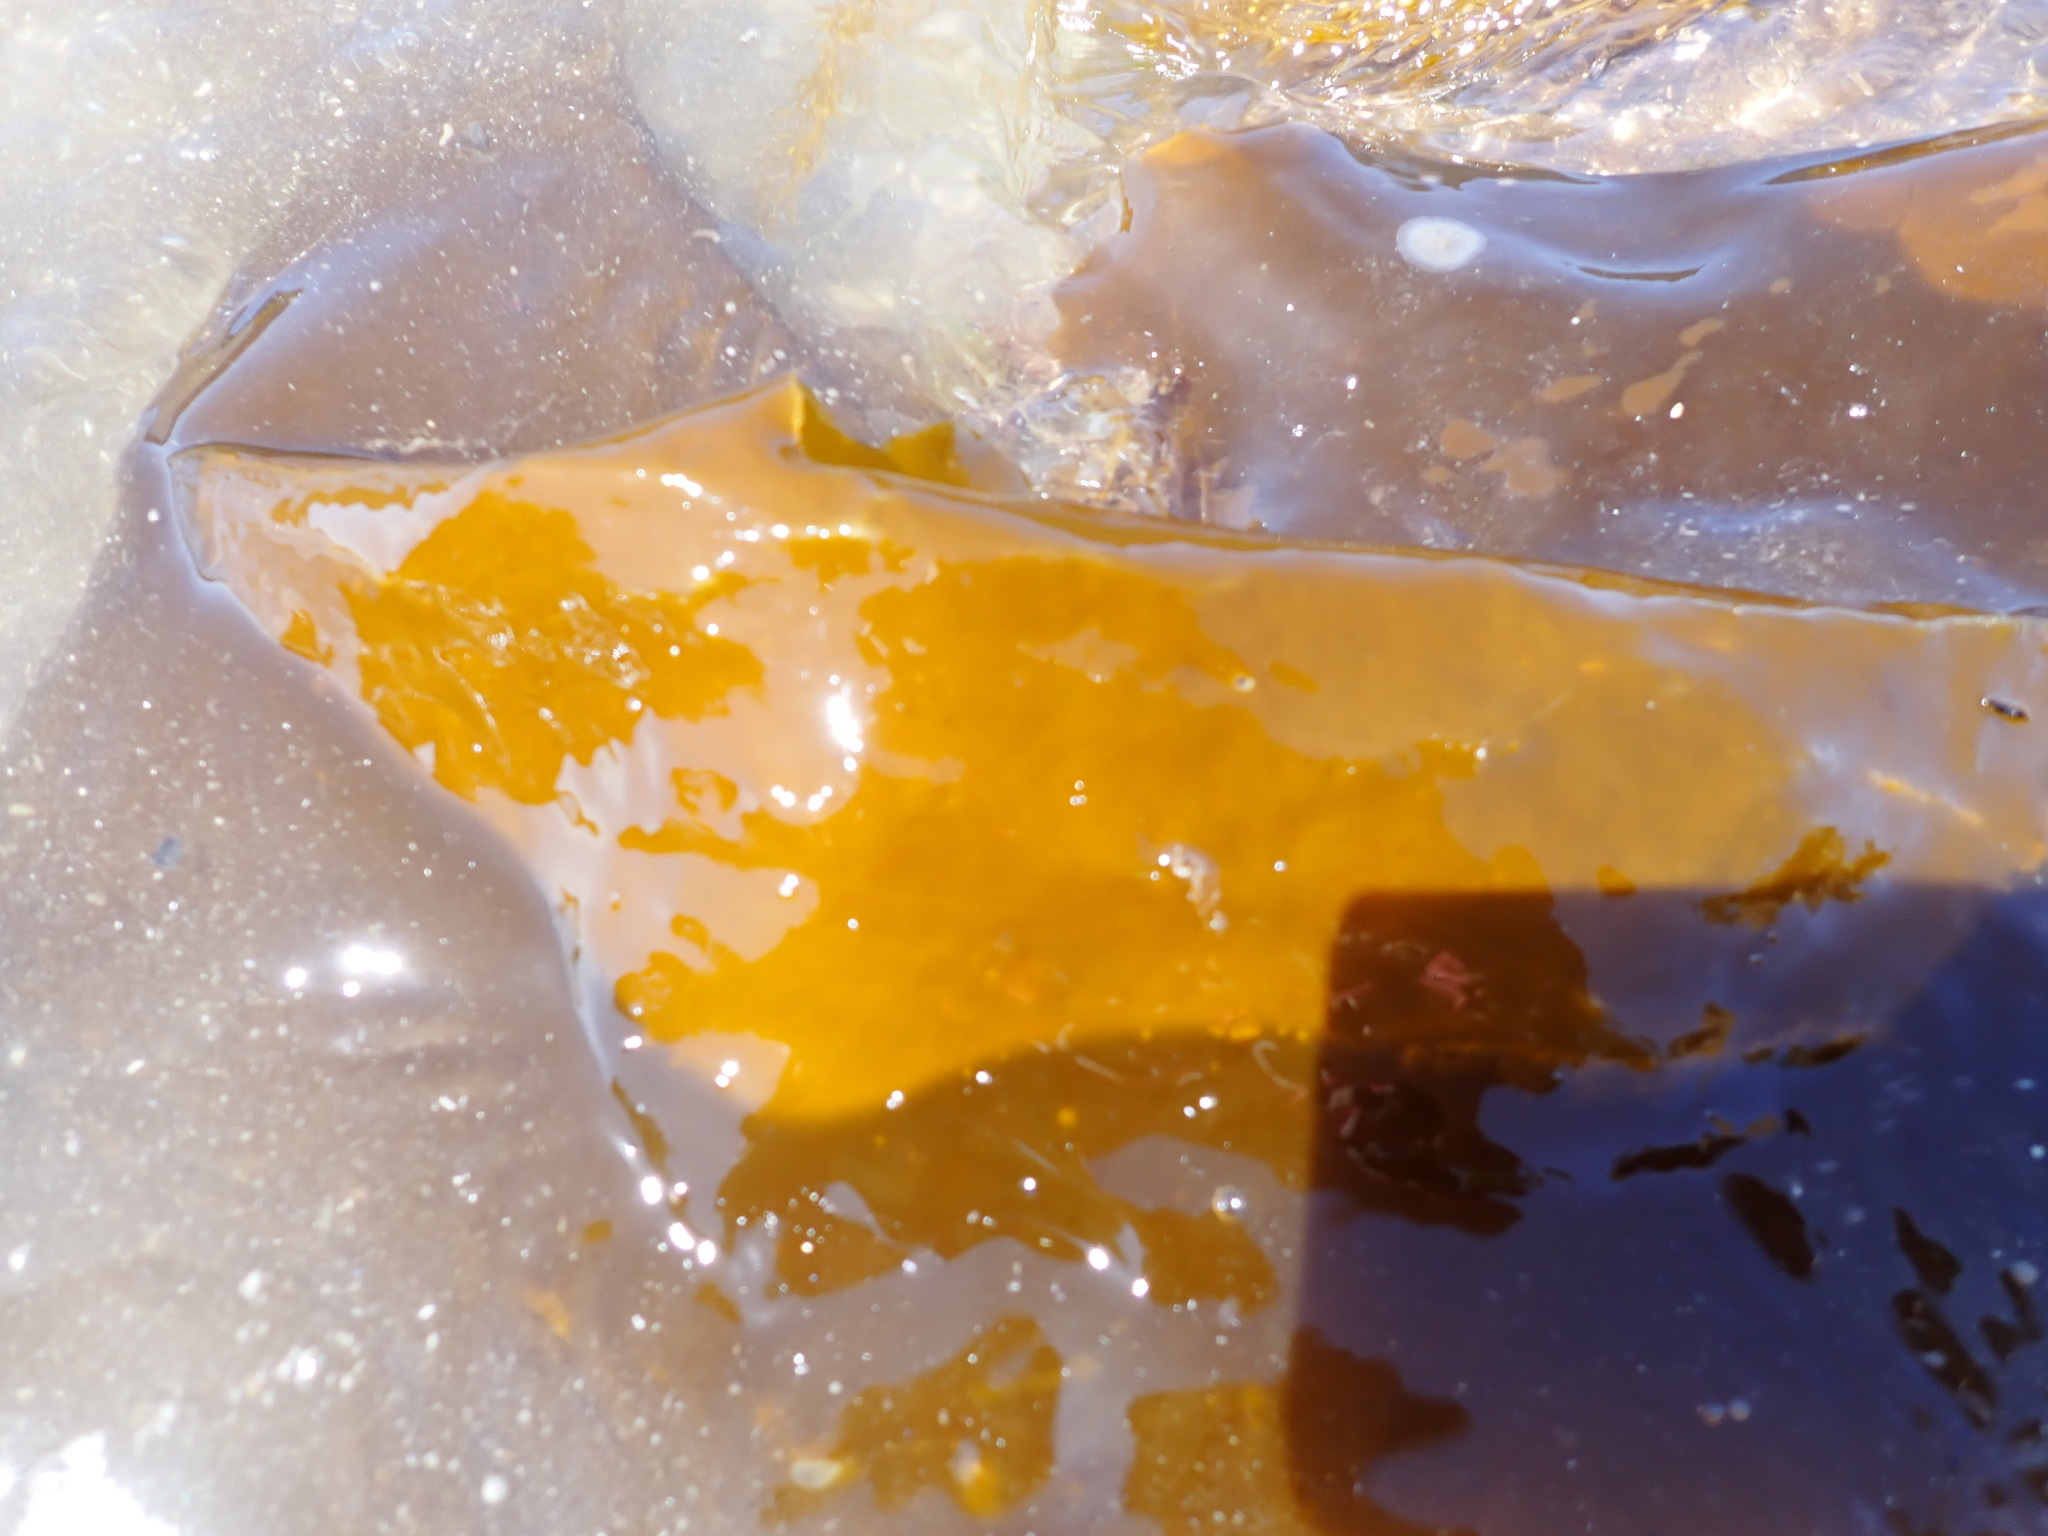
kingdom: Chromista
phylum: Ochrophyta
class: Phaeophyceae
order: Laminariales
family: Laminariaceae
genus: Saccharina
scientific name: Saccharina latissima
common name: Poor man's weather glass
